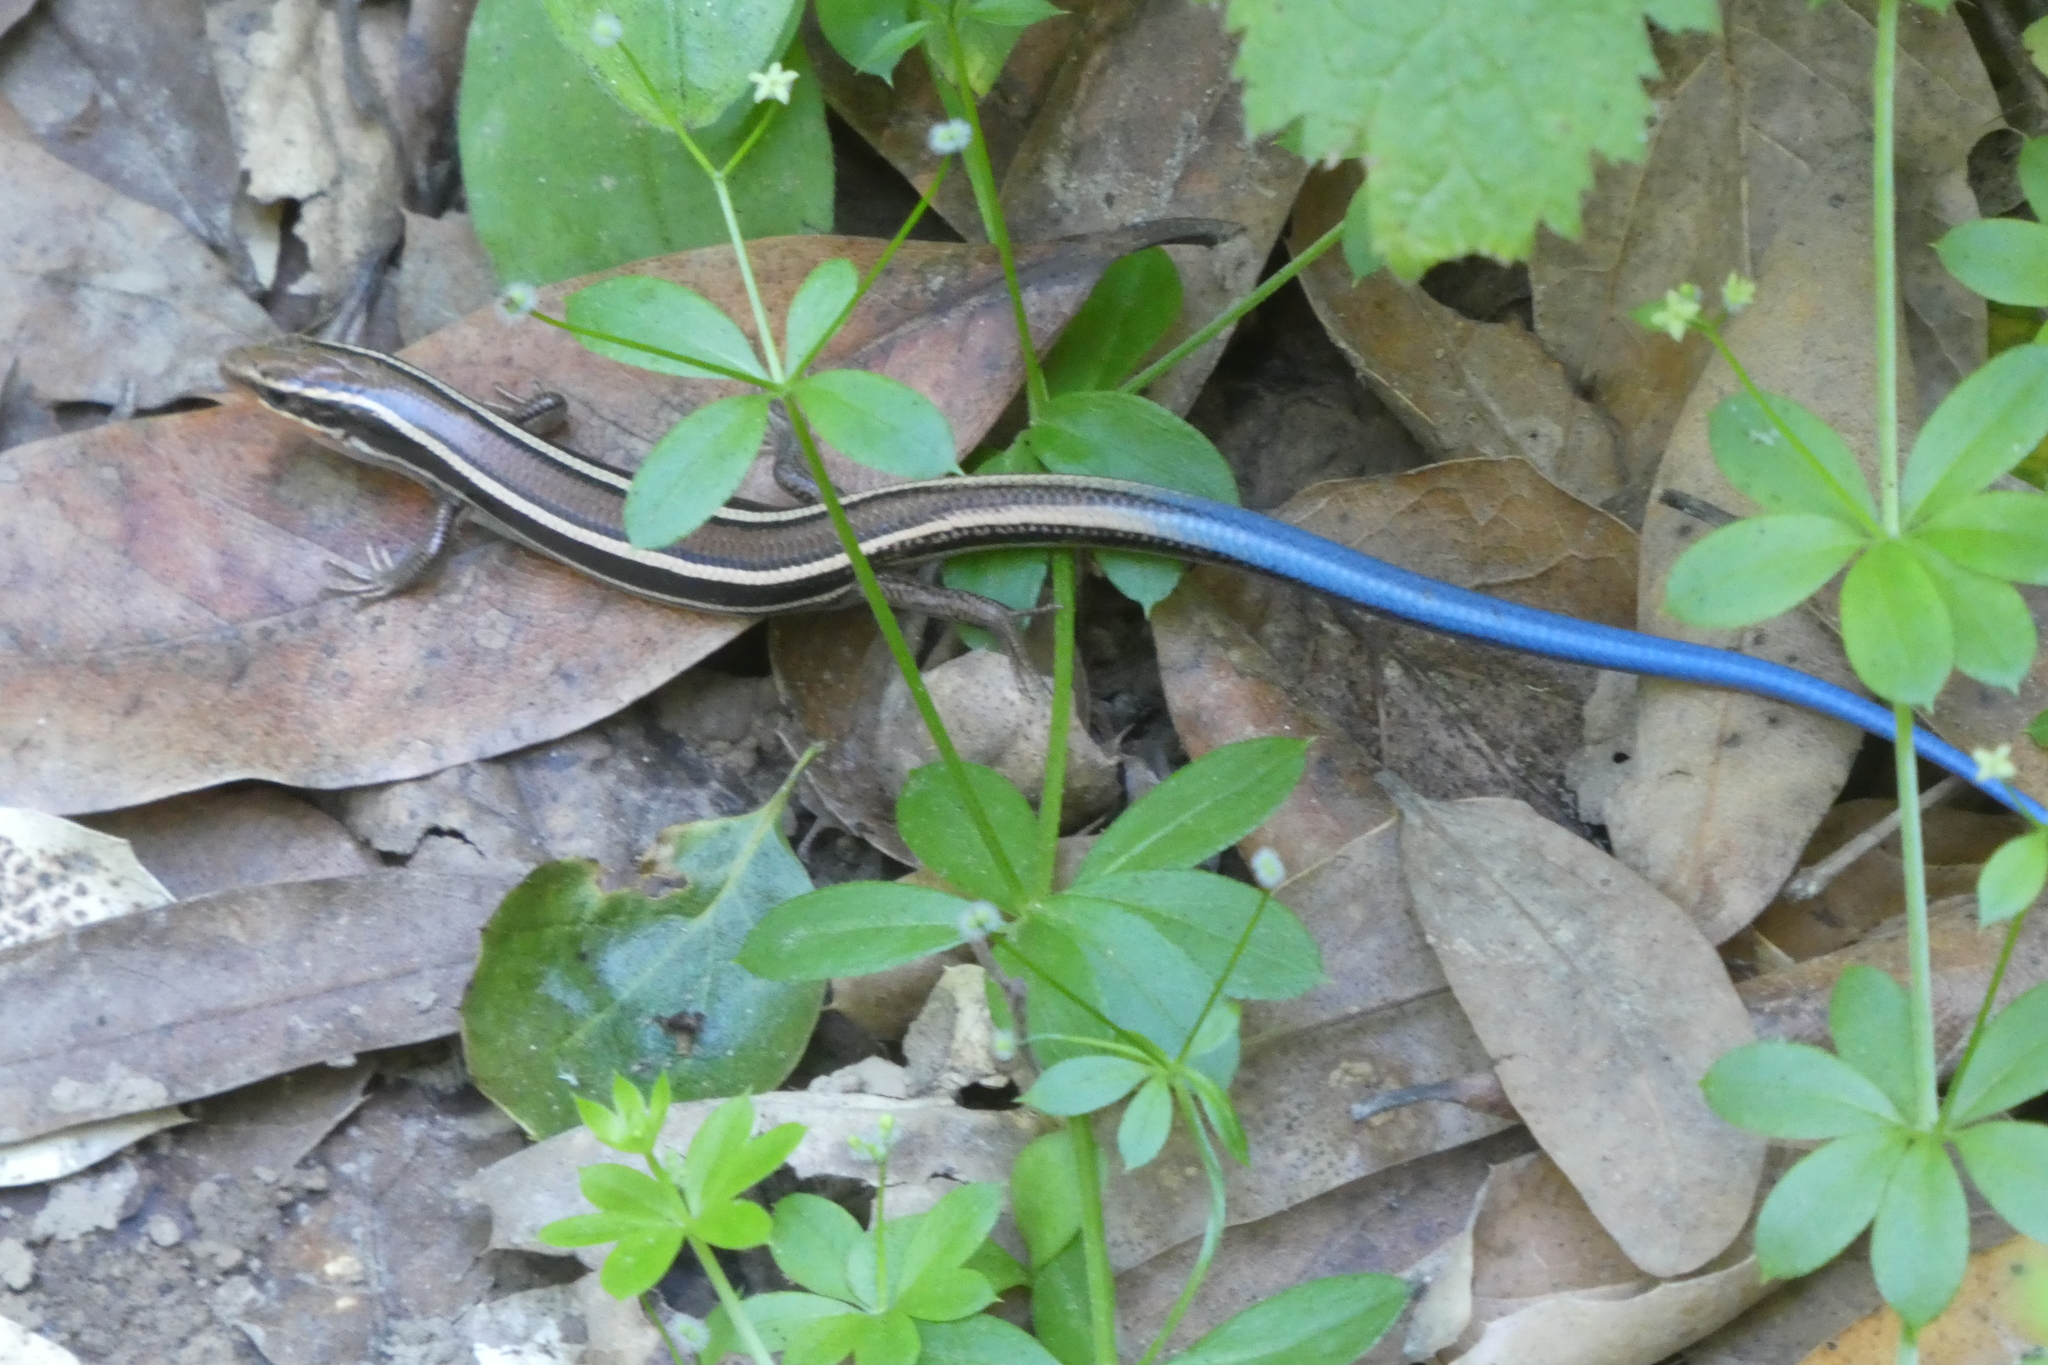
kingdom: Animalia
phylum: Chordata
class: Squamata
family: Scincidae
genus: Plestiodon
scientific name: Plestiodon skiltonianus
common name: Coronado island skink [interparietalis]
